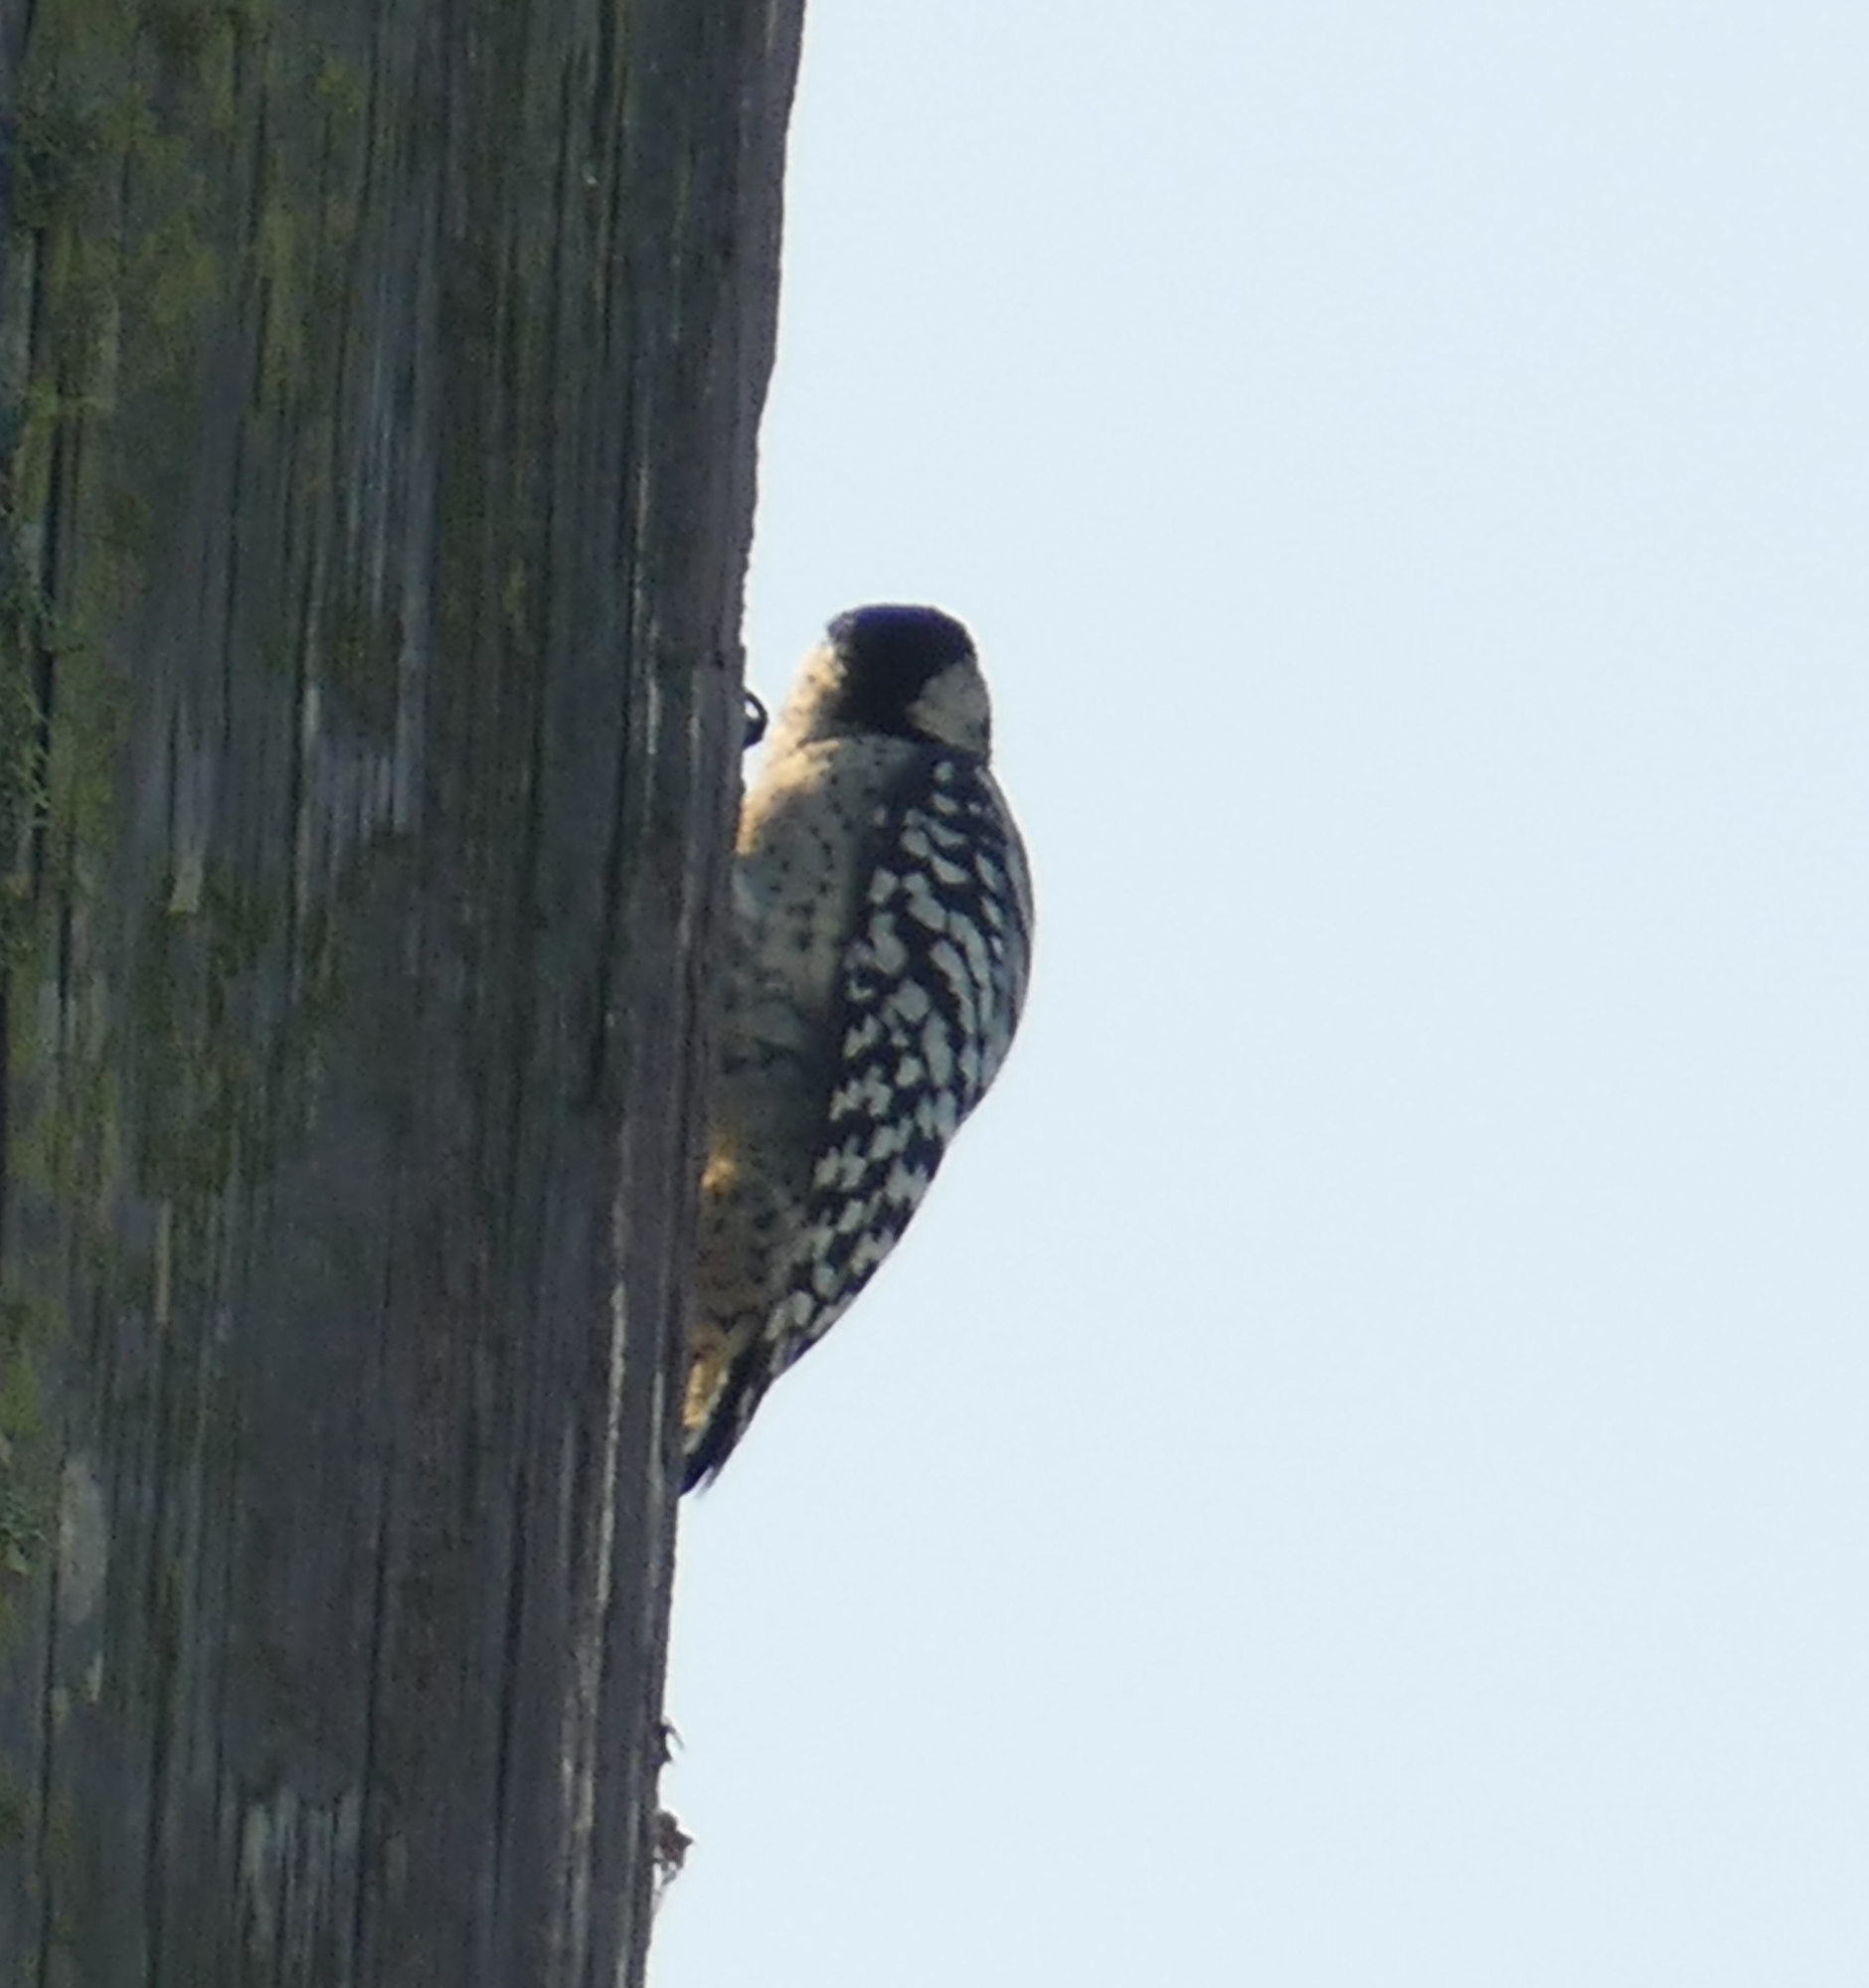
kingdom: Animalia
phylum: Chordata
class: Aves
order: Piciformes
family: Picidae
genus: Dryobates
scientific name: Dryobates scalaris
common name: Ladder-backed woodpecker
